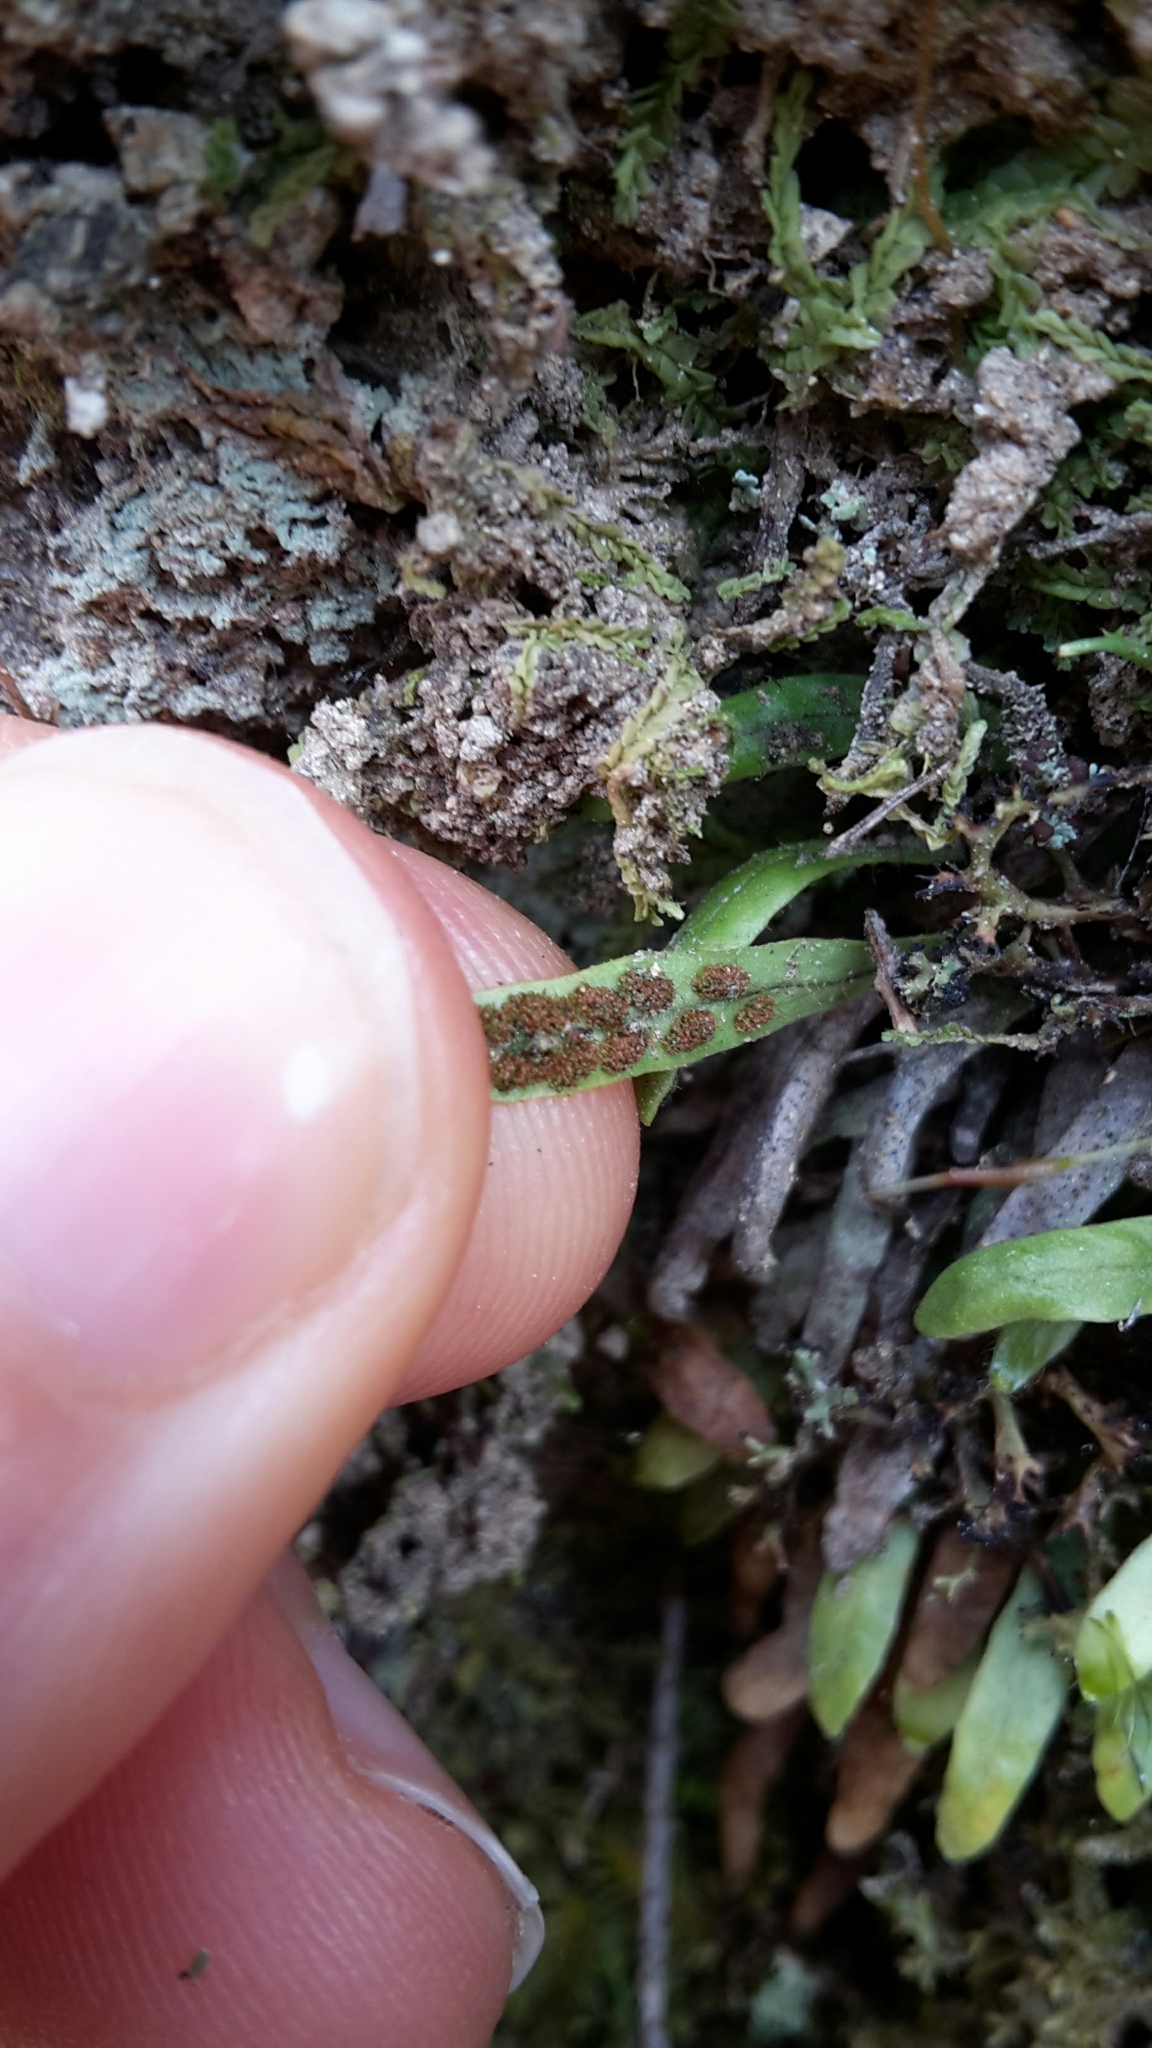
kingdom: Plantae
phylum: Tracheophyta
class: Polypodiopsida
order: Polypodiales
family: Polypodiaceae
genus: Notogrammitis
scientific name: Notogrammitis ciliata
